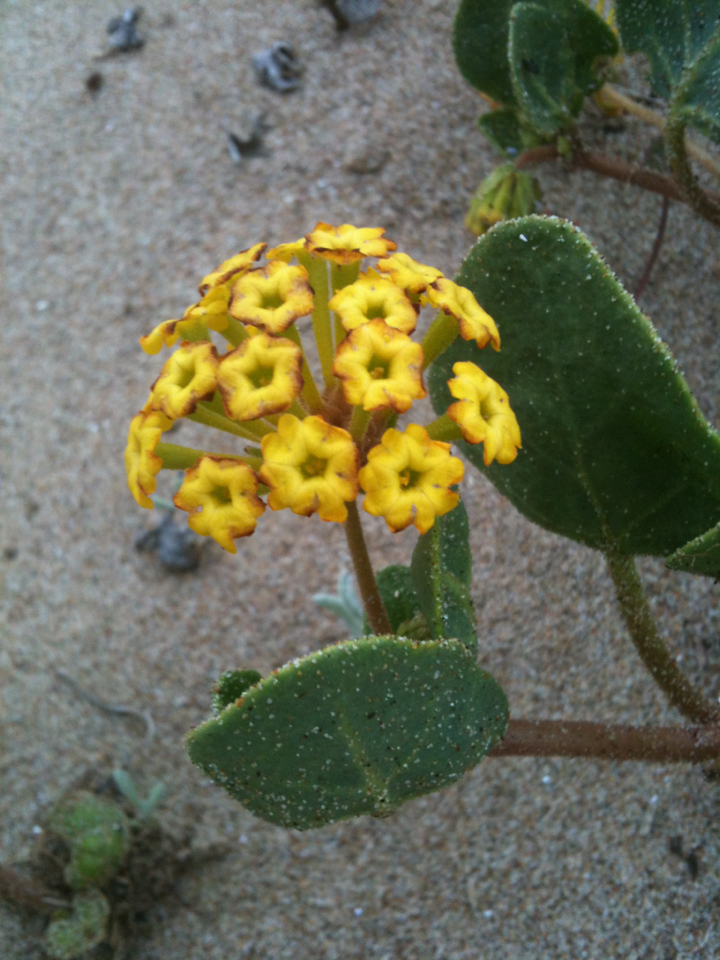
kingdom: Plantae
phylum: Tracheophyta
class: Magnoliopsida
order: Caryophyllales
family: Nyctaginaceae
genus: Abronia
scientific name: Abronia latifolia
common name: Yellow sand-verbena
